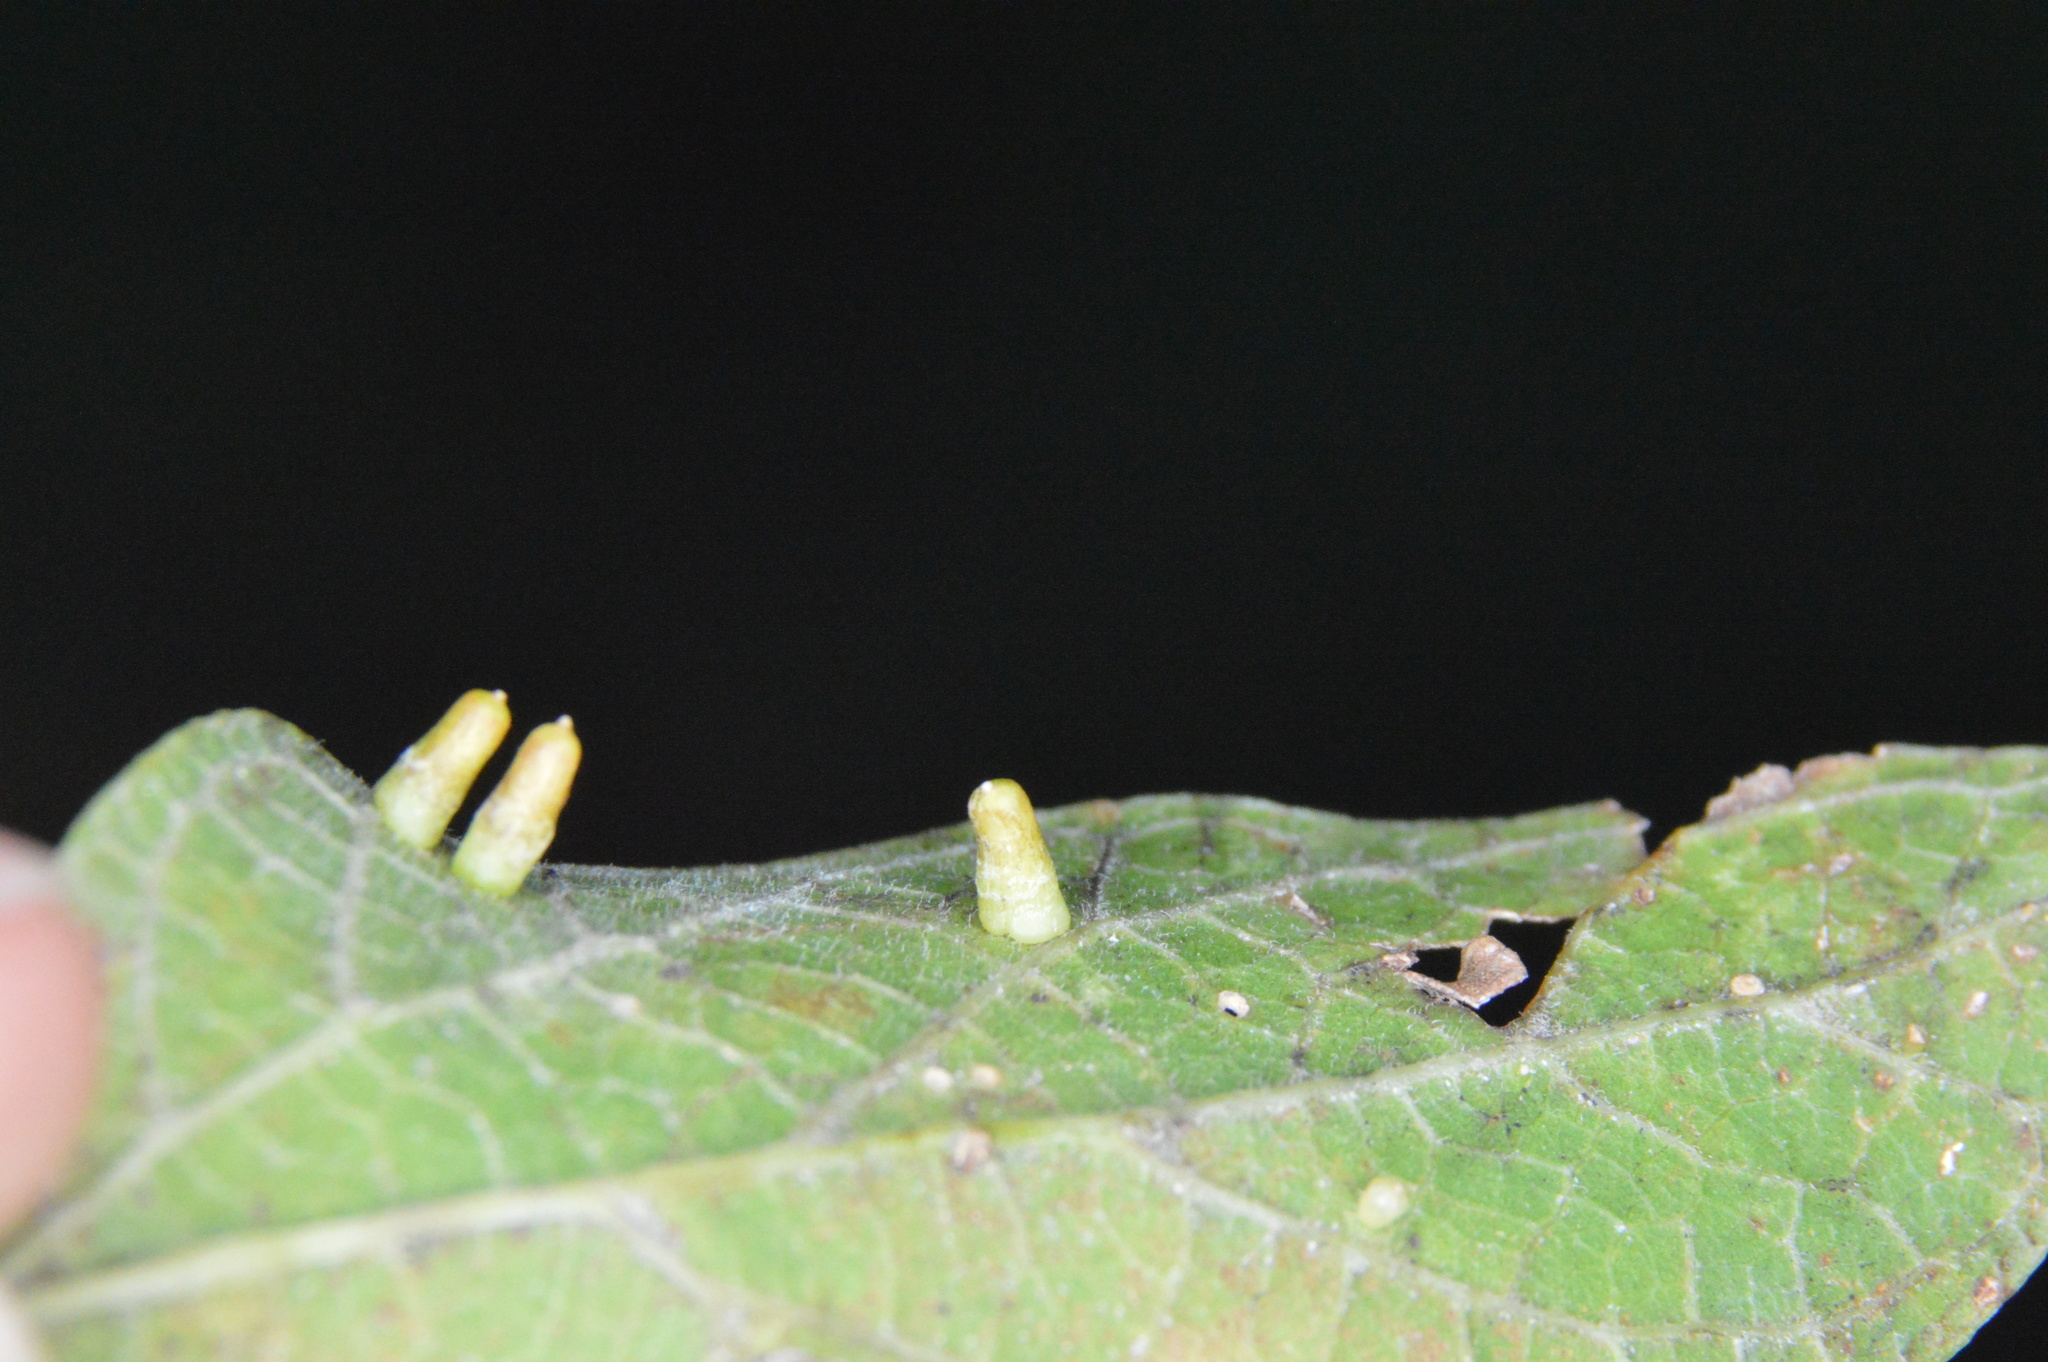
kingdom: Animalia
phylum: Arthropoda
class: Insecta
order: Diptera
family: Cecidomyiidae
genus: Celticecis
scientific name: Celticecis aciculata
